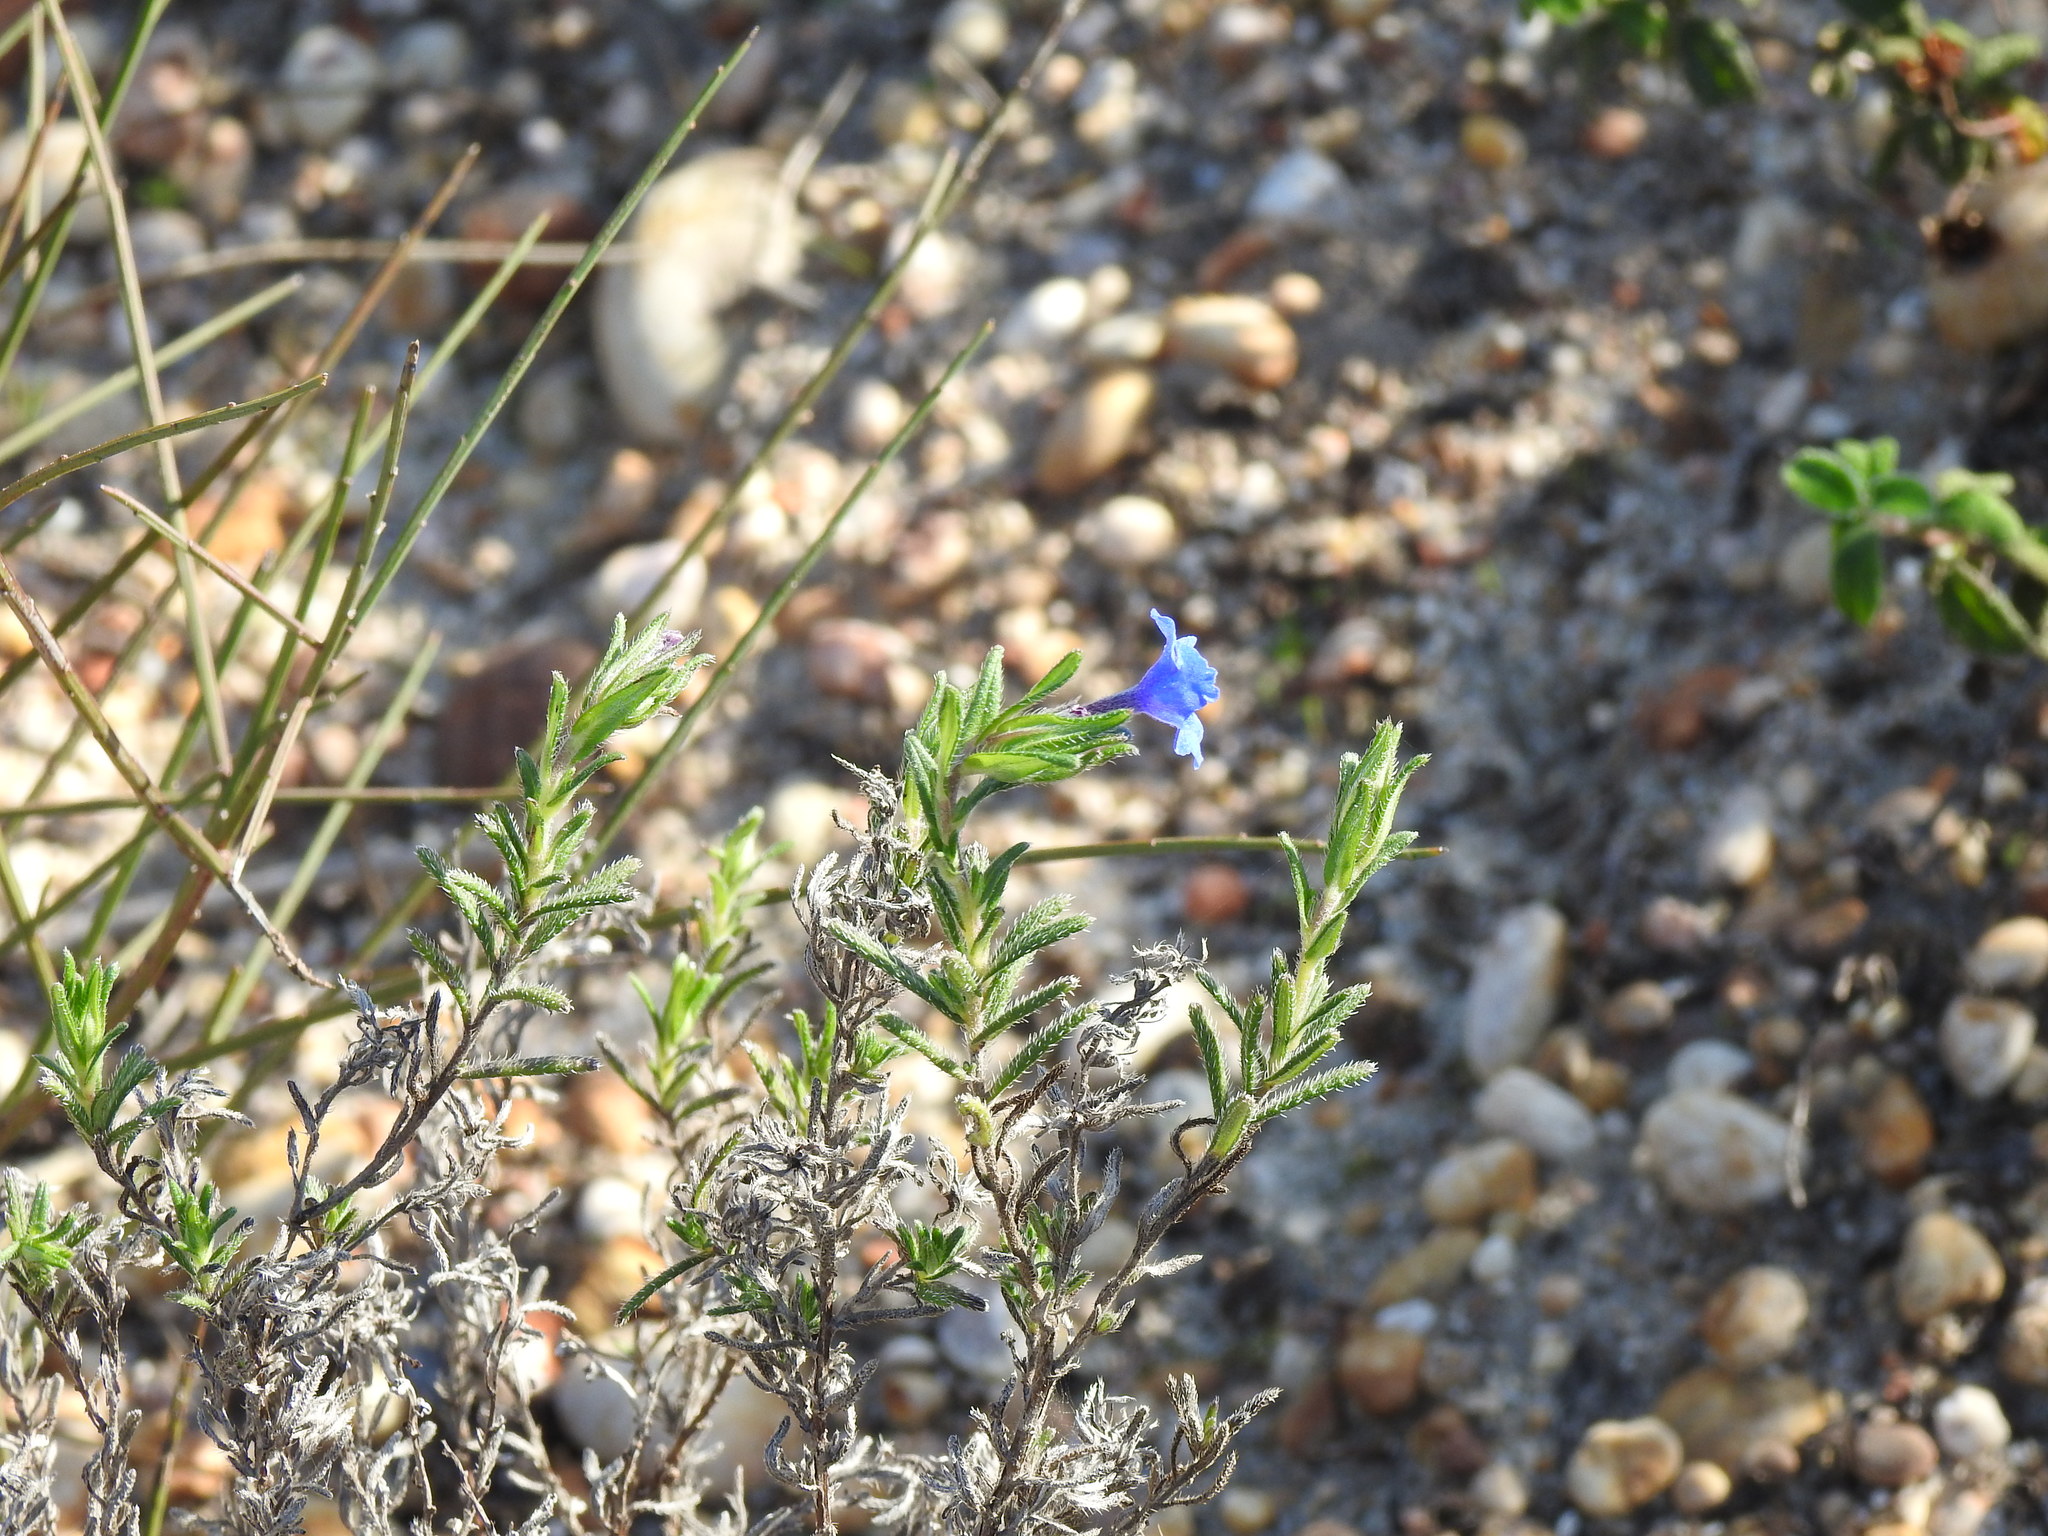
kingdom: Plantae
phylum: Tracheophyta
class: Magnoliopsida
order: Boraginales
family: Boraginaceae
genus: Glandora
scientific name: Glandora prostrata
